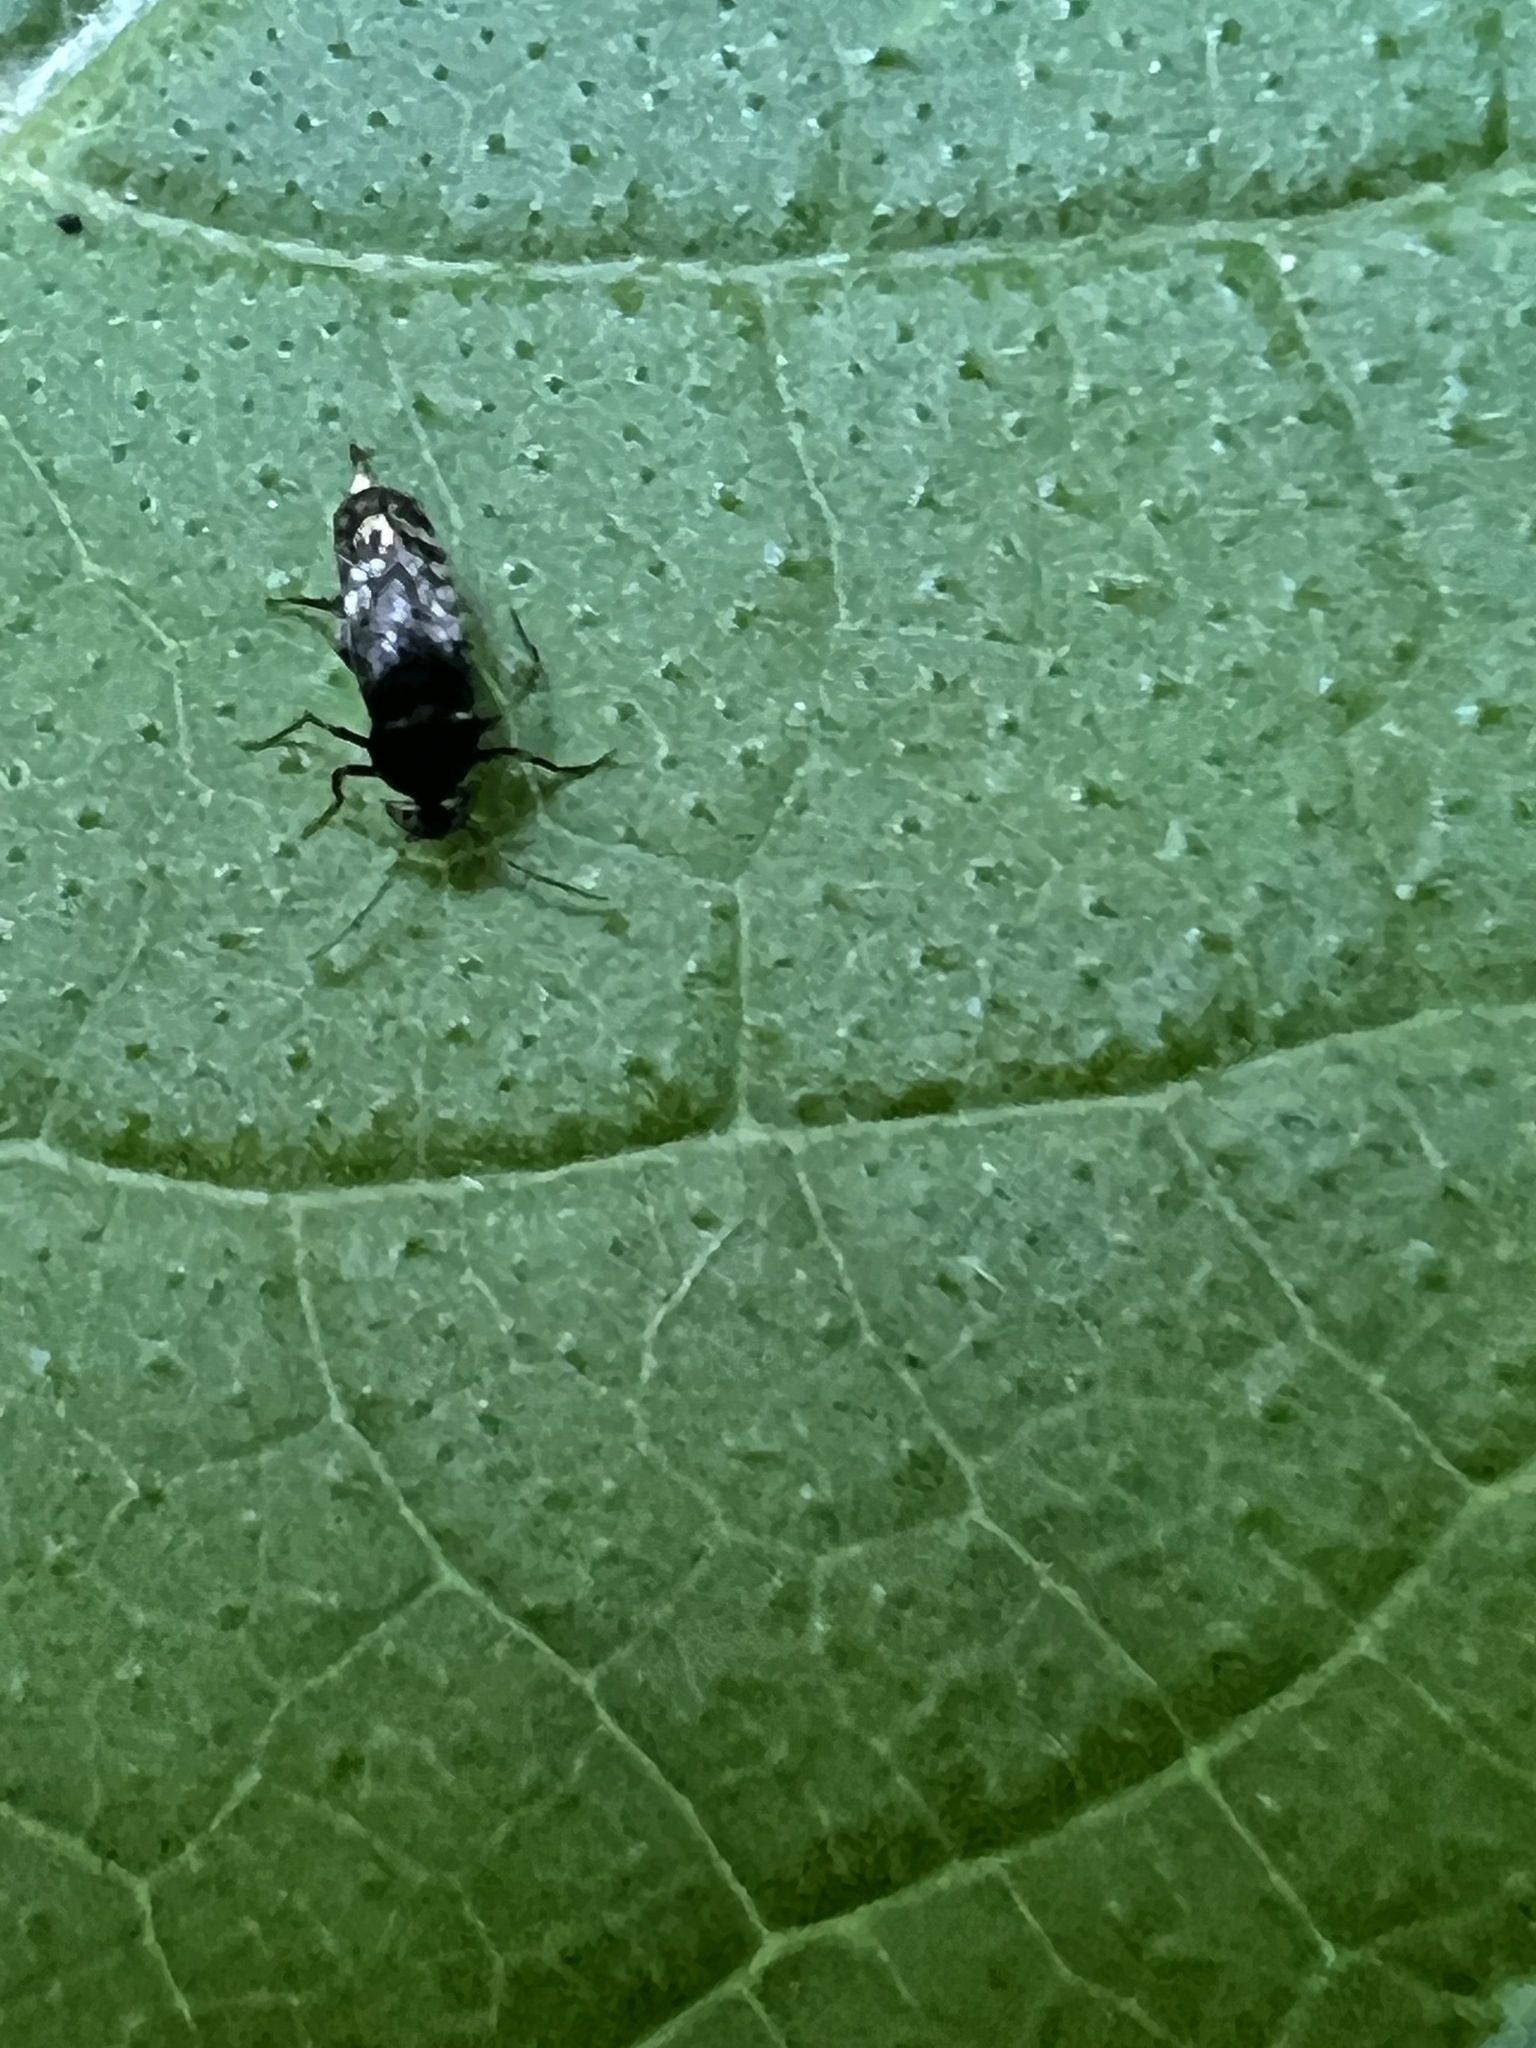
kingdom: Animalia
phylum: Arthropoda
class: Insecta
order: Coleoptera
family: Mordellidae
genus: Mordellina
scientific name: Mordellina pustulata
